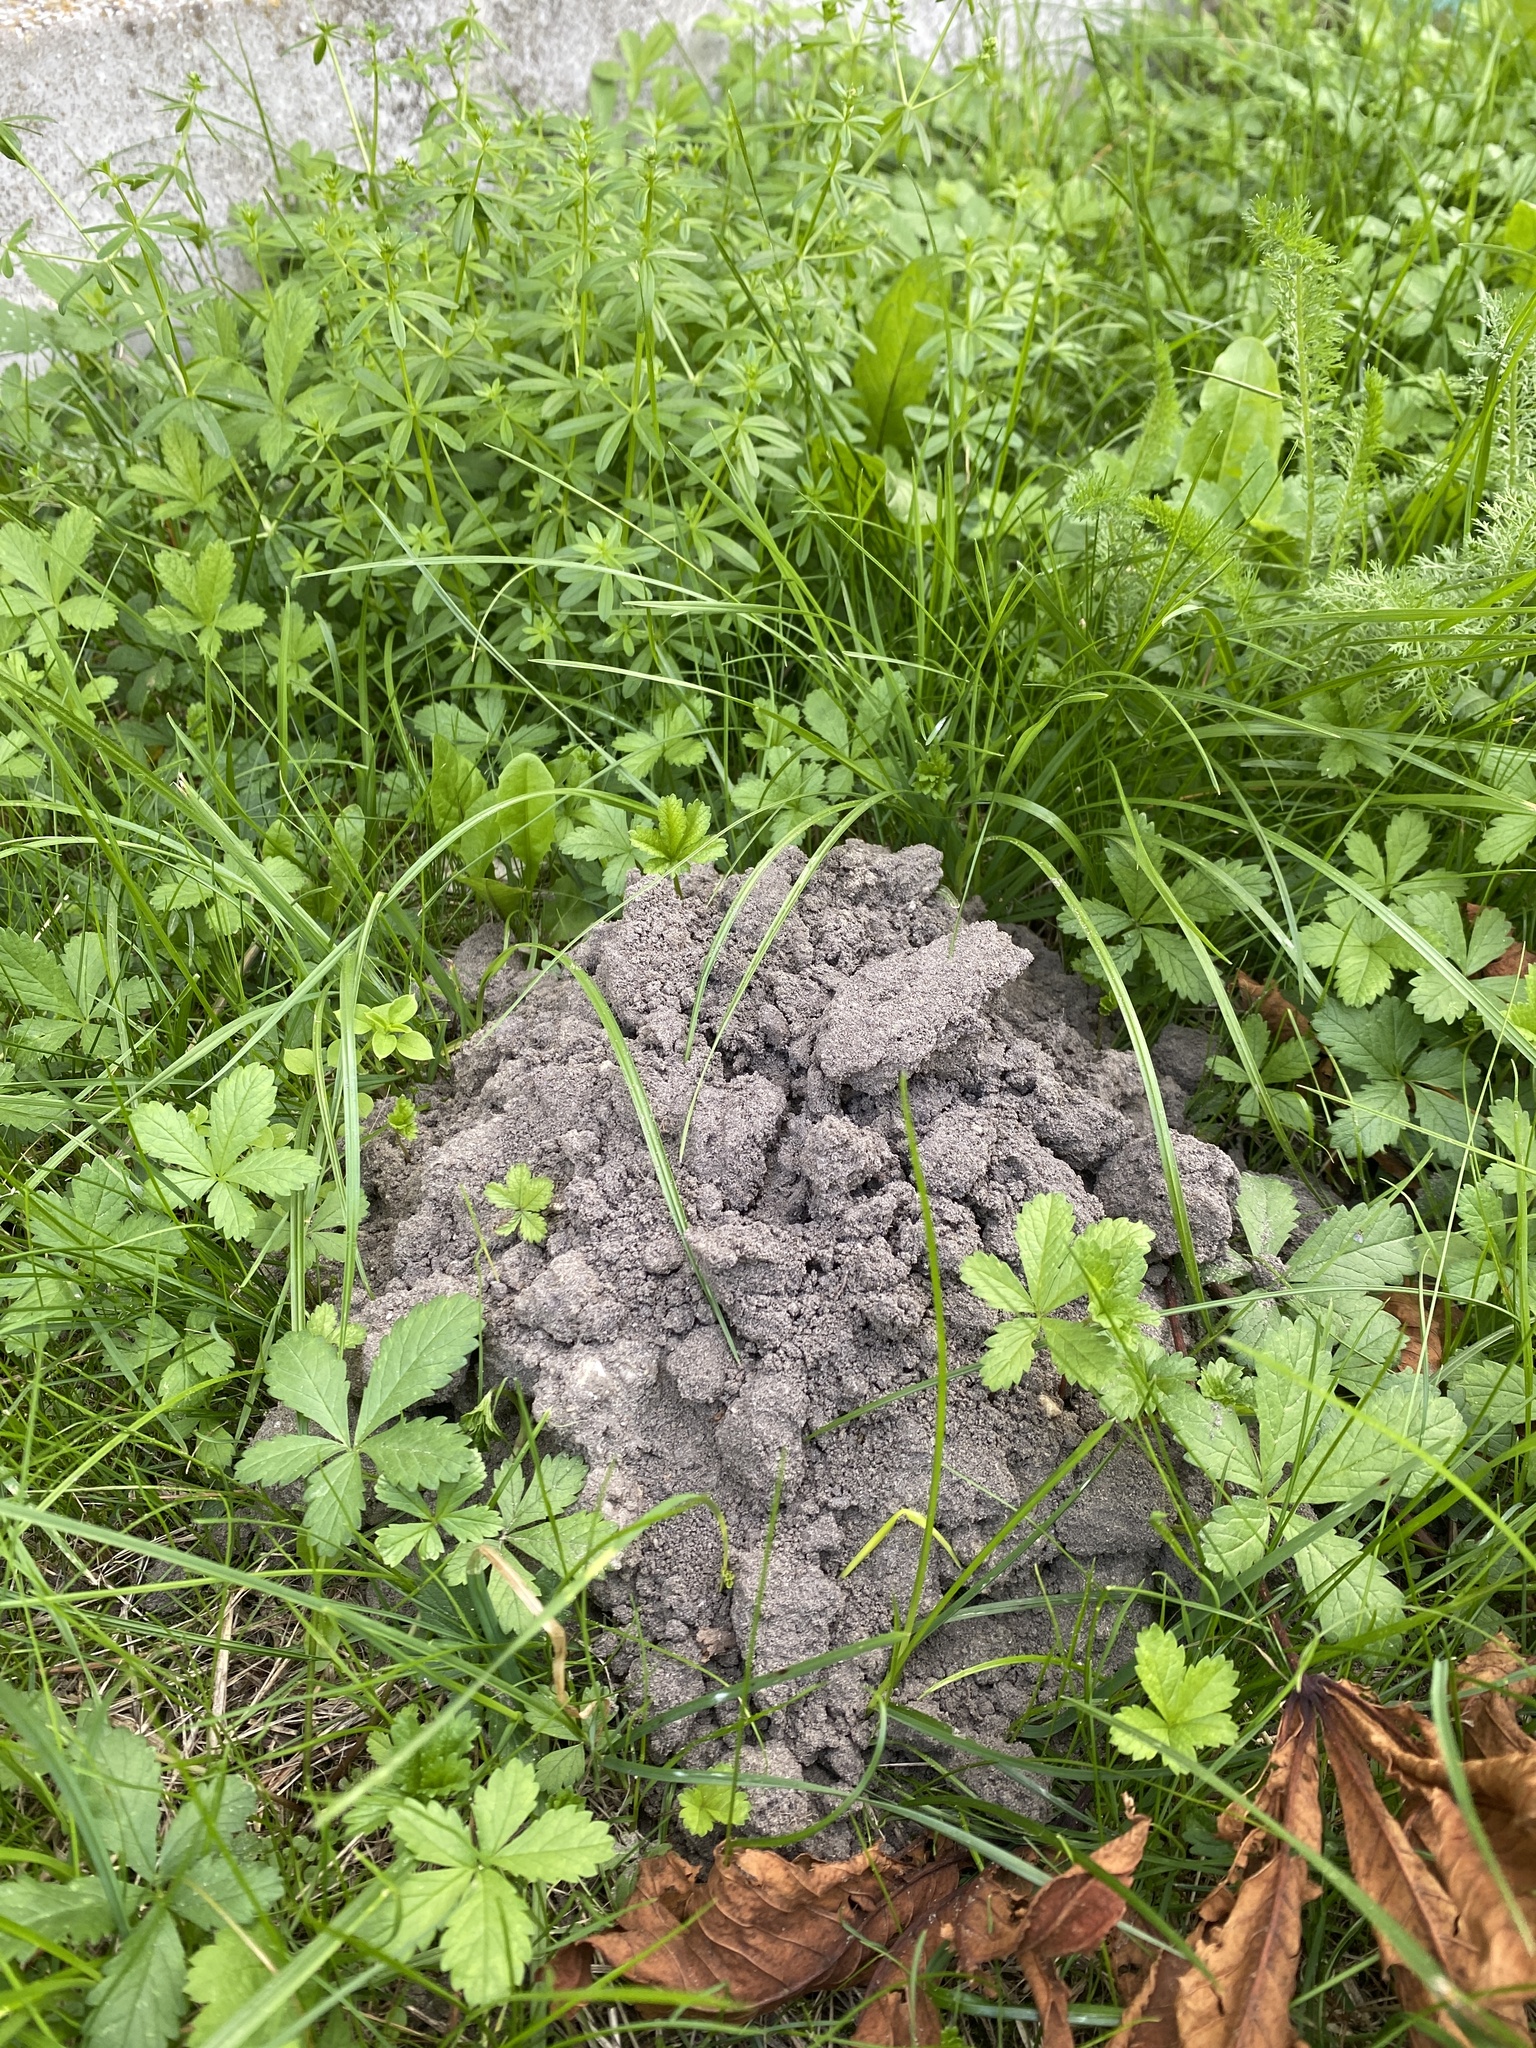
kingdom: Animalia
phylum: Chordata
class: Mammalia
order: Soricomorpha
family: Talpidae
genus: Talpa
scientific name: Talpa europaea
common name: European mole
